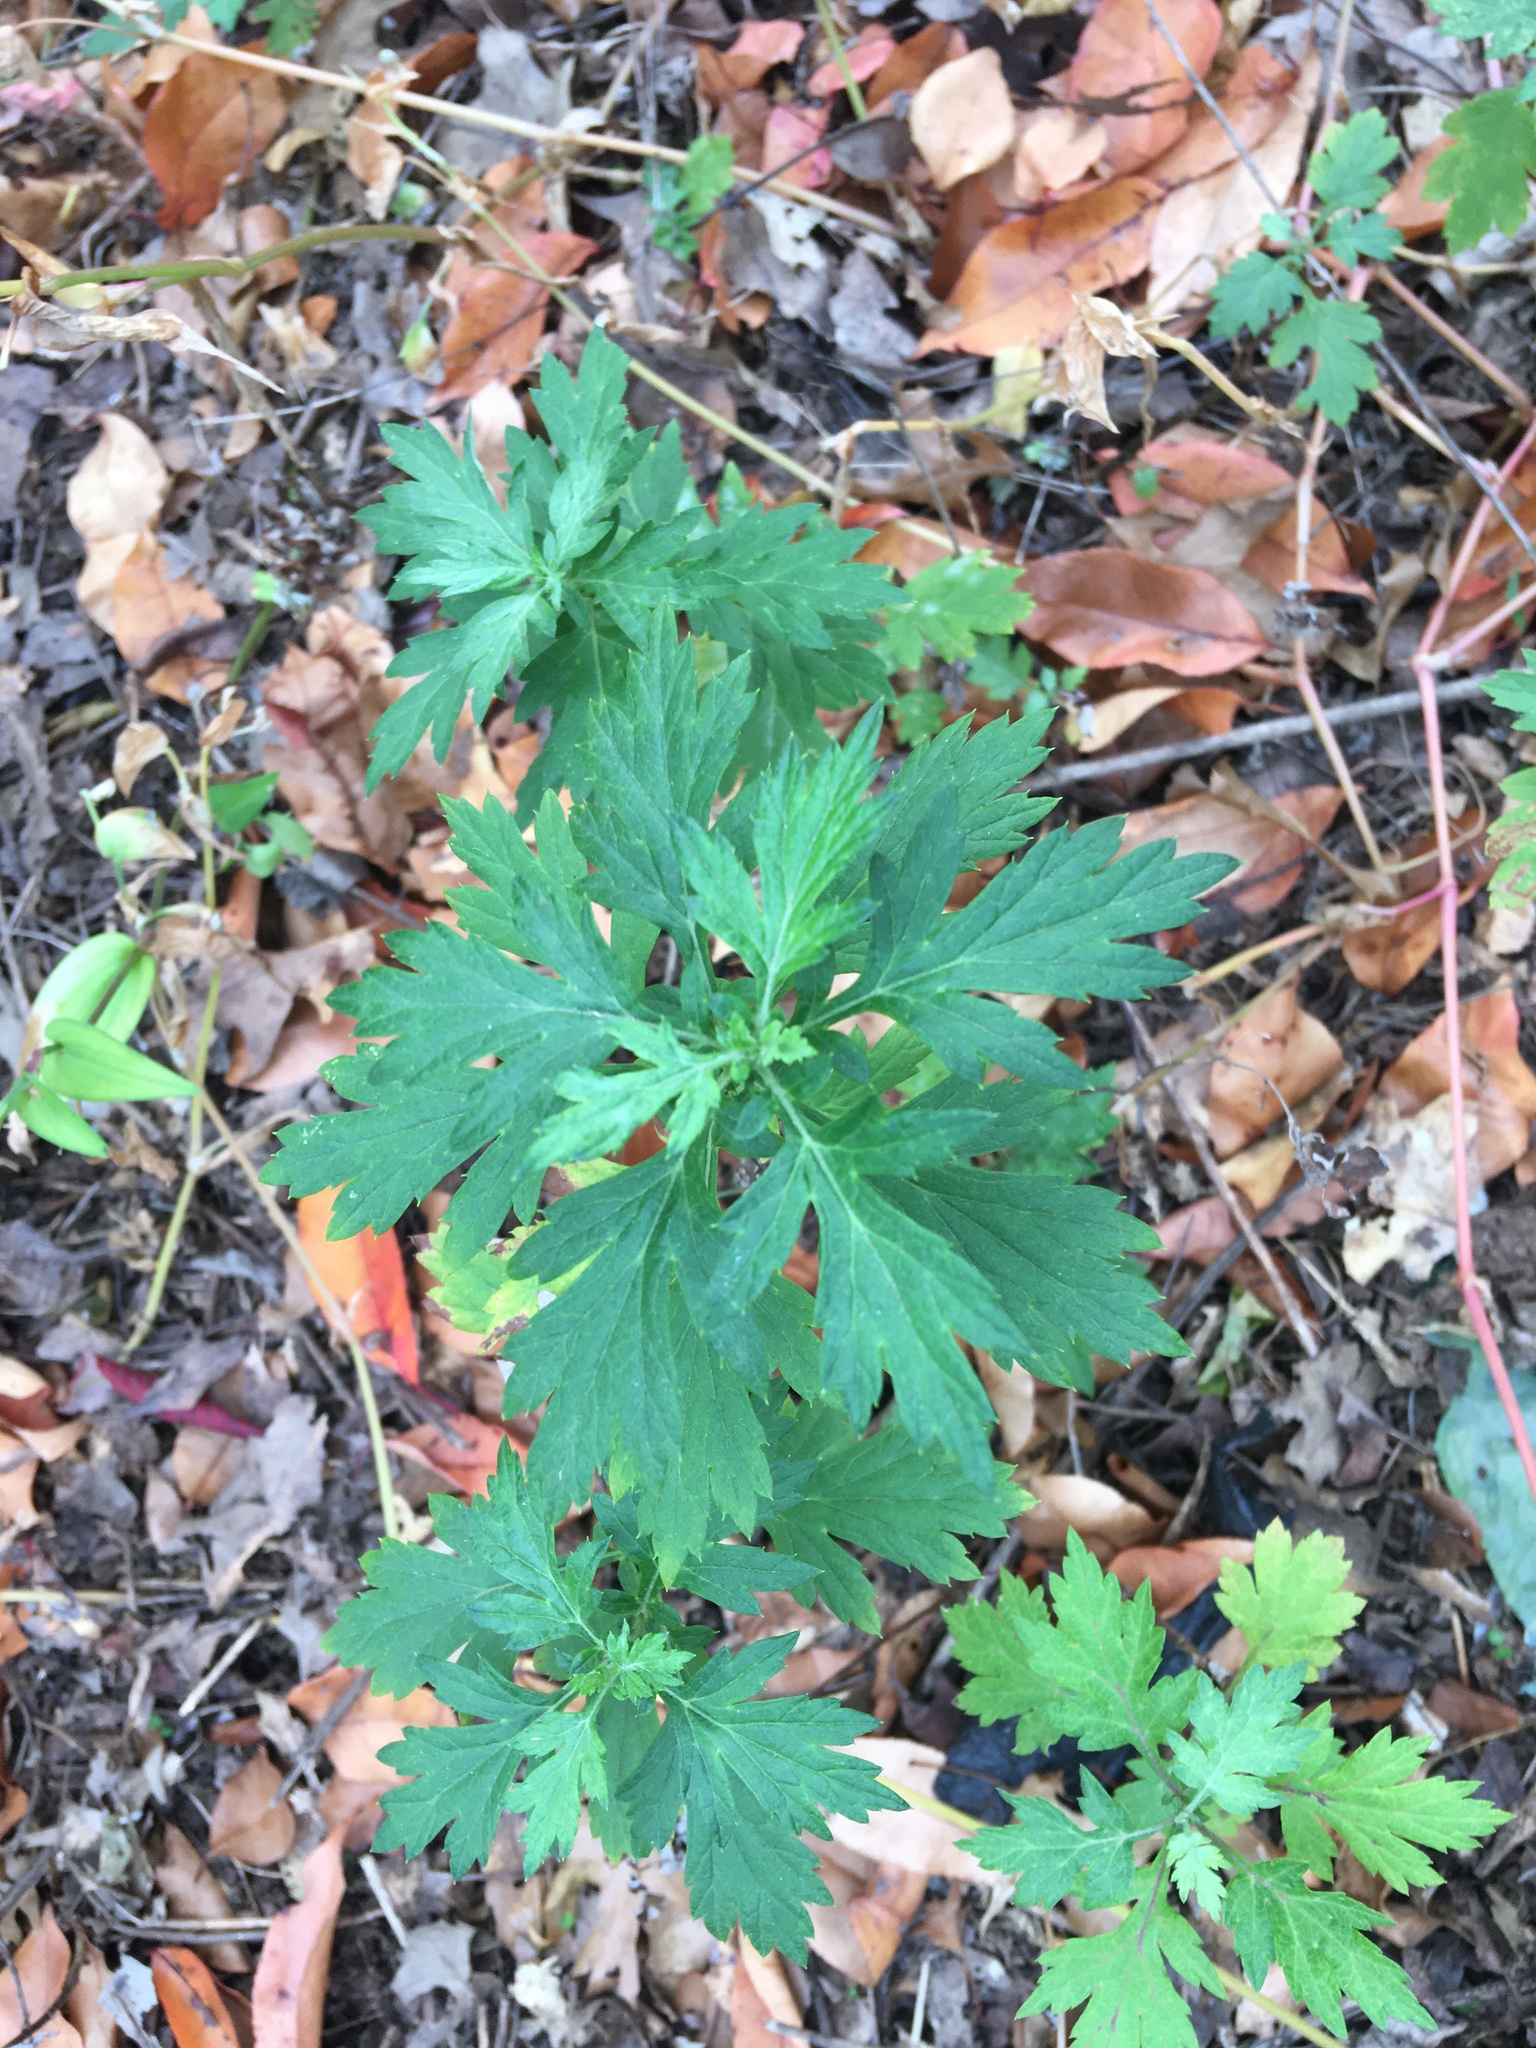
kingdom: Plantae
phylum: Tracheophyta
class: Magnoliopsida
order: Asterales
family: Asteraceae
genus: Artemisia
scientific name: Artemisia vulgaris
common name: Mugwort
